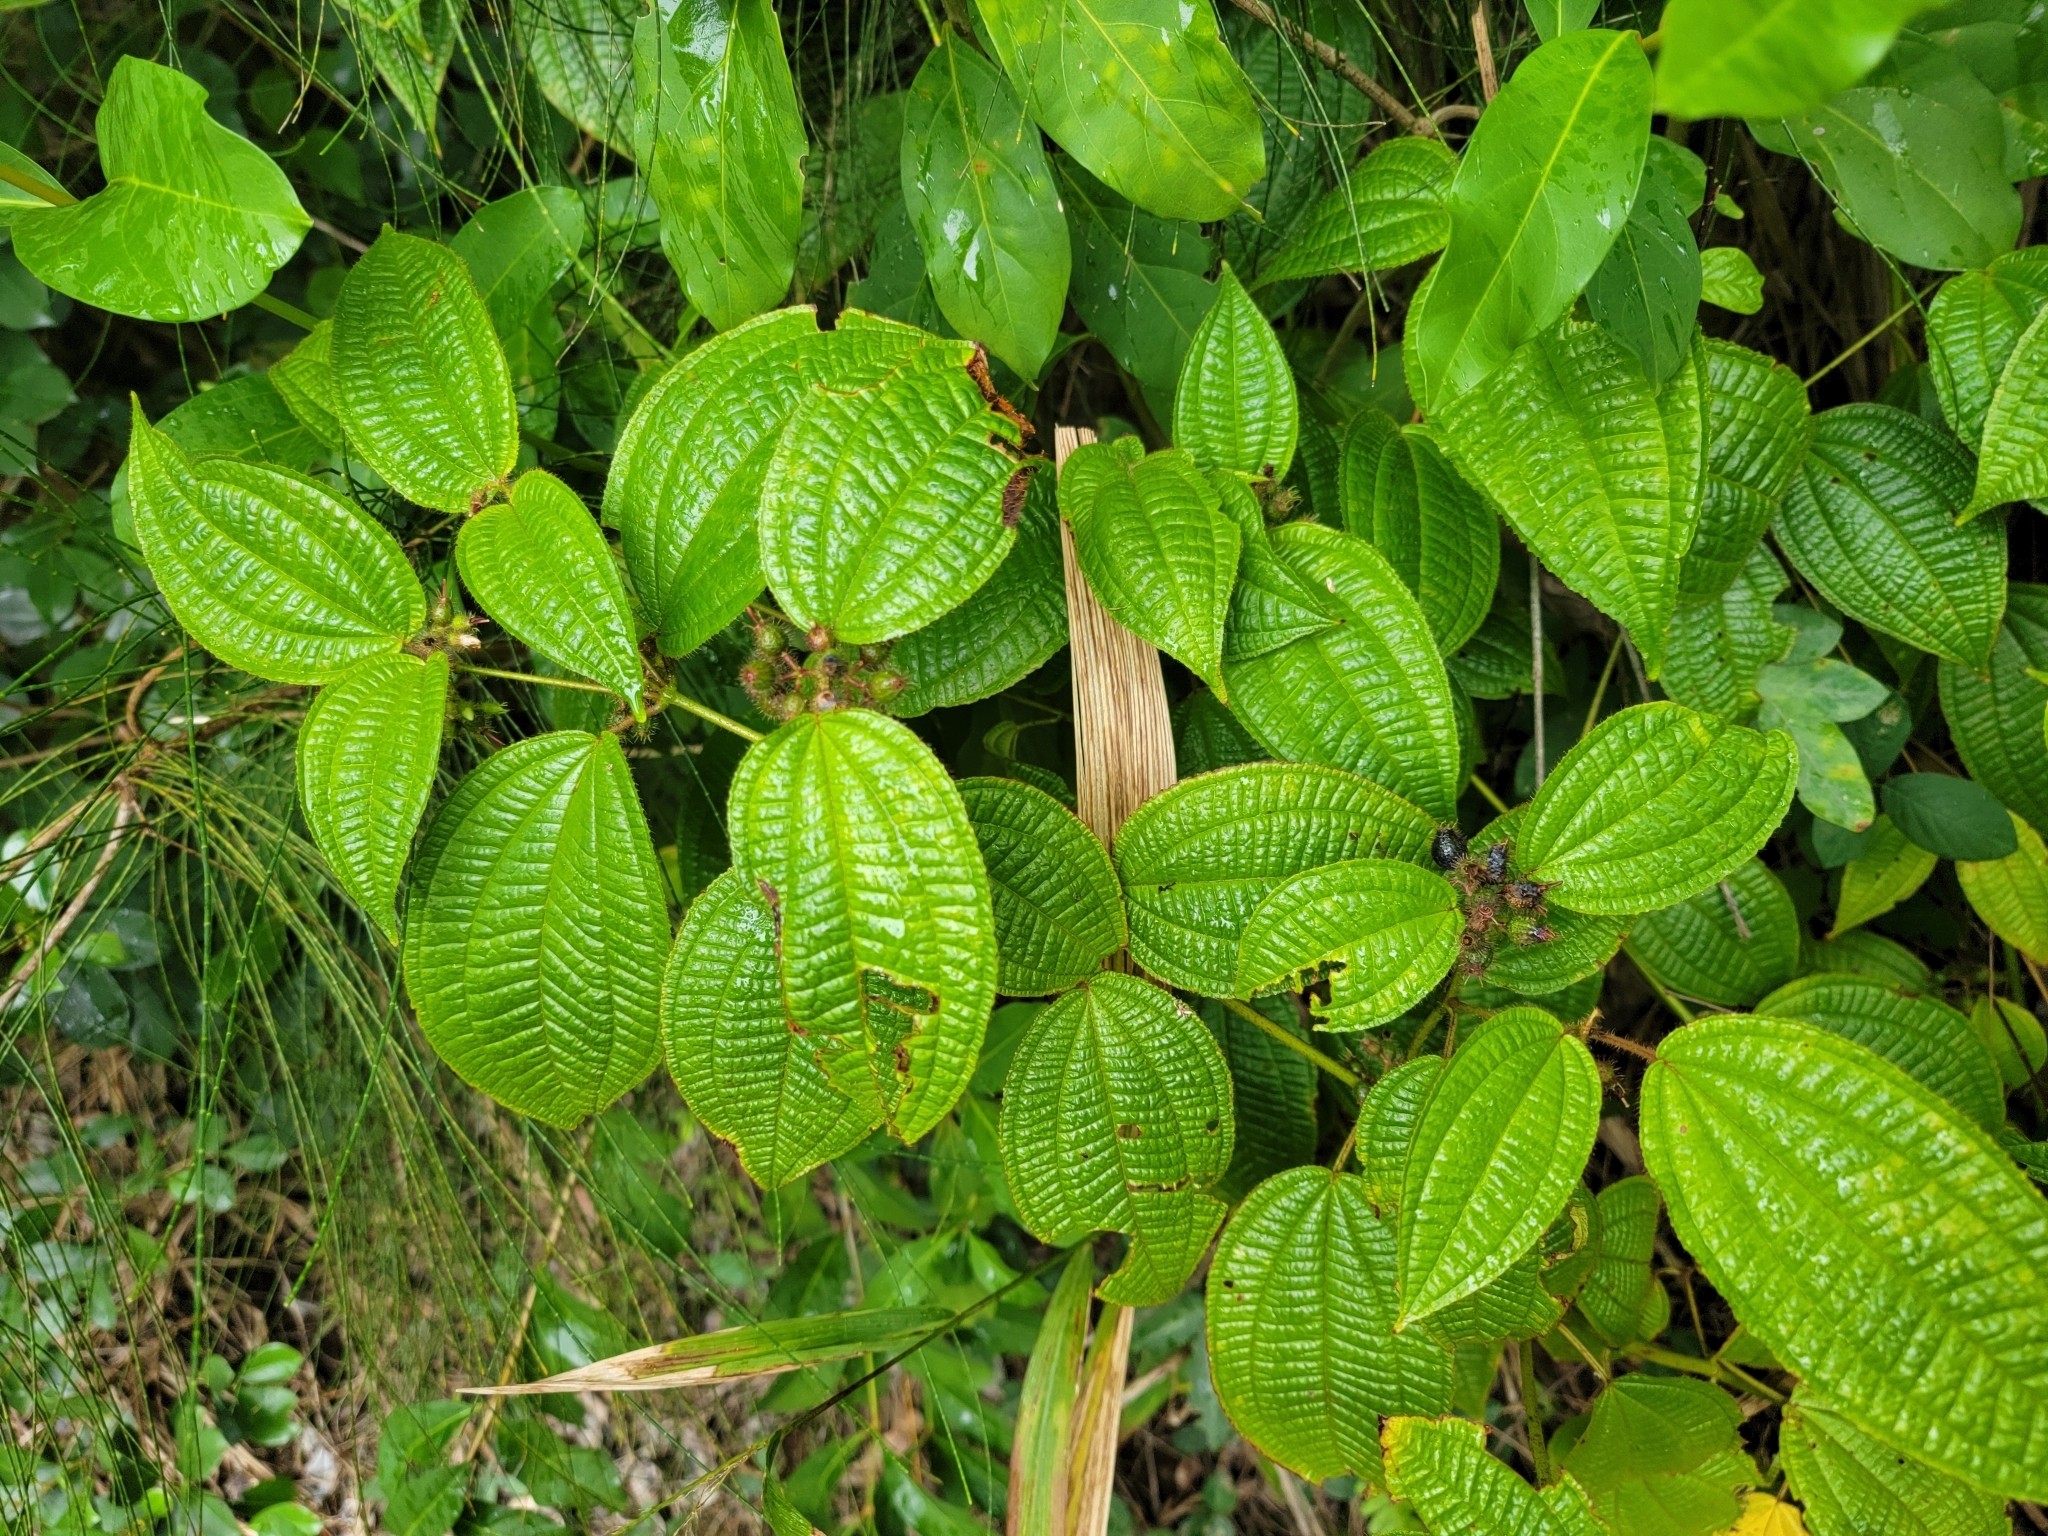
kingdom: Plantae
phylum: Tracheophyta
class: Magnoliopsida
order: Myrtales
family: Melastomataceae
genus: Miconia
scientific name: Miconia crenata
